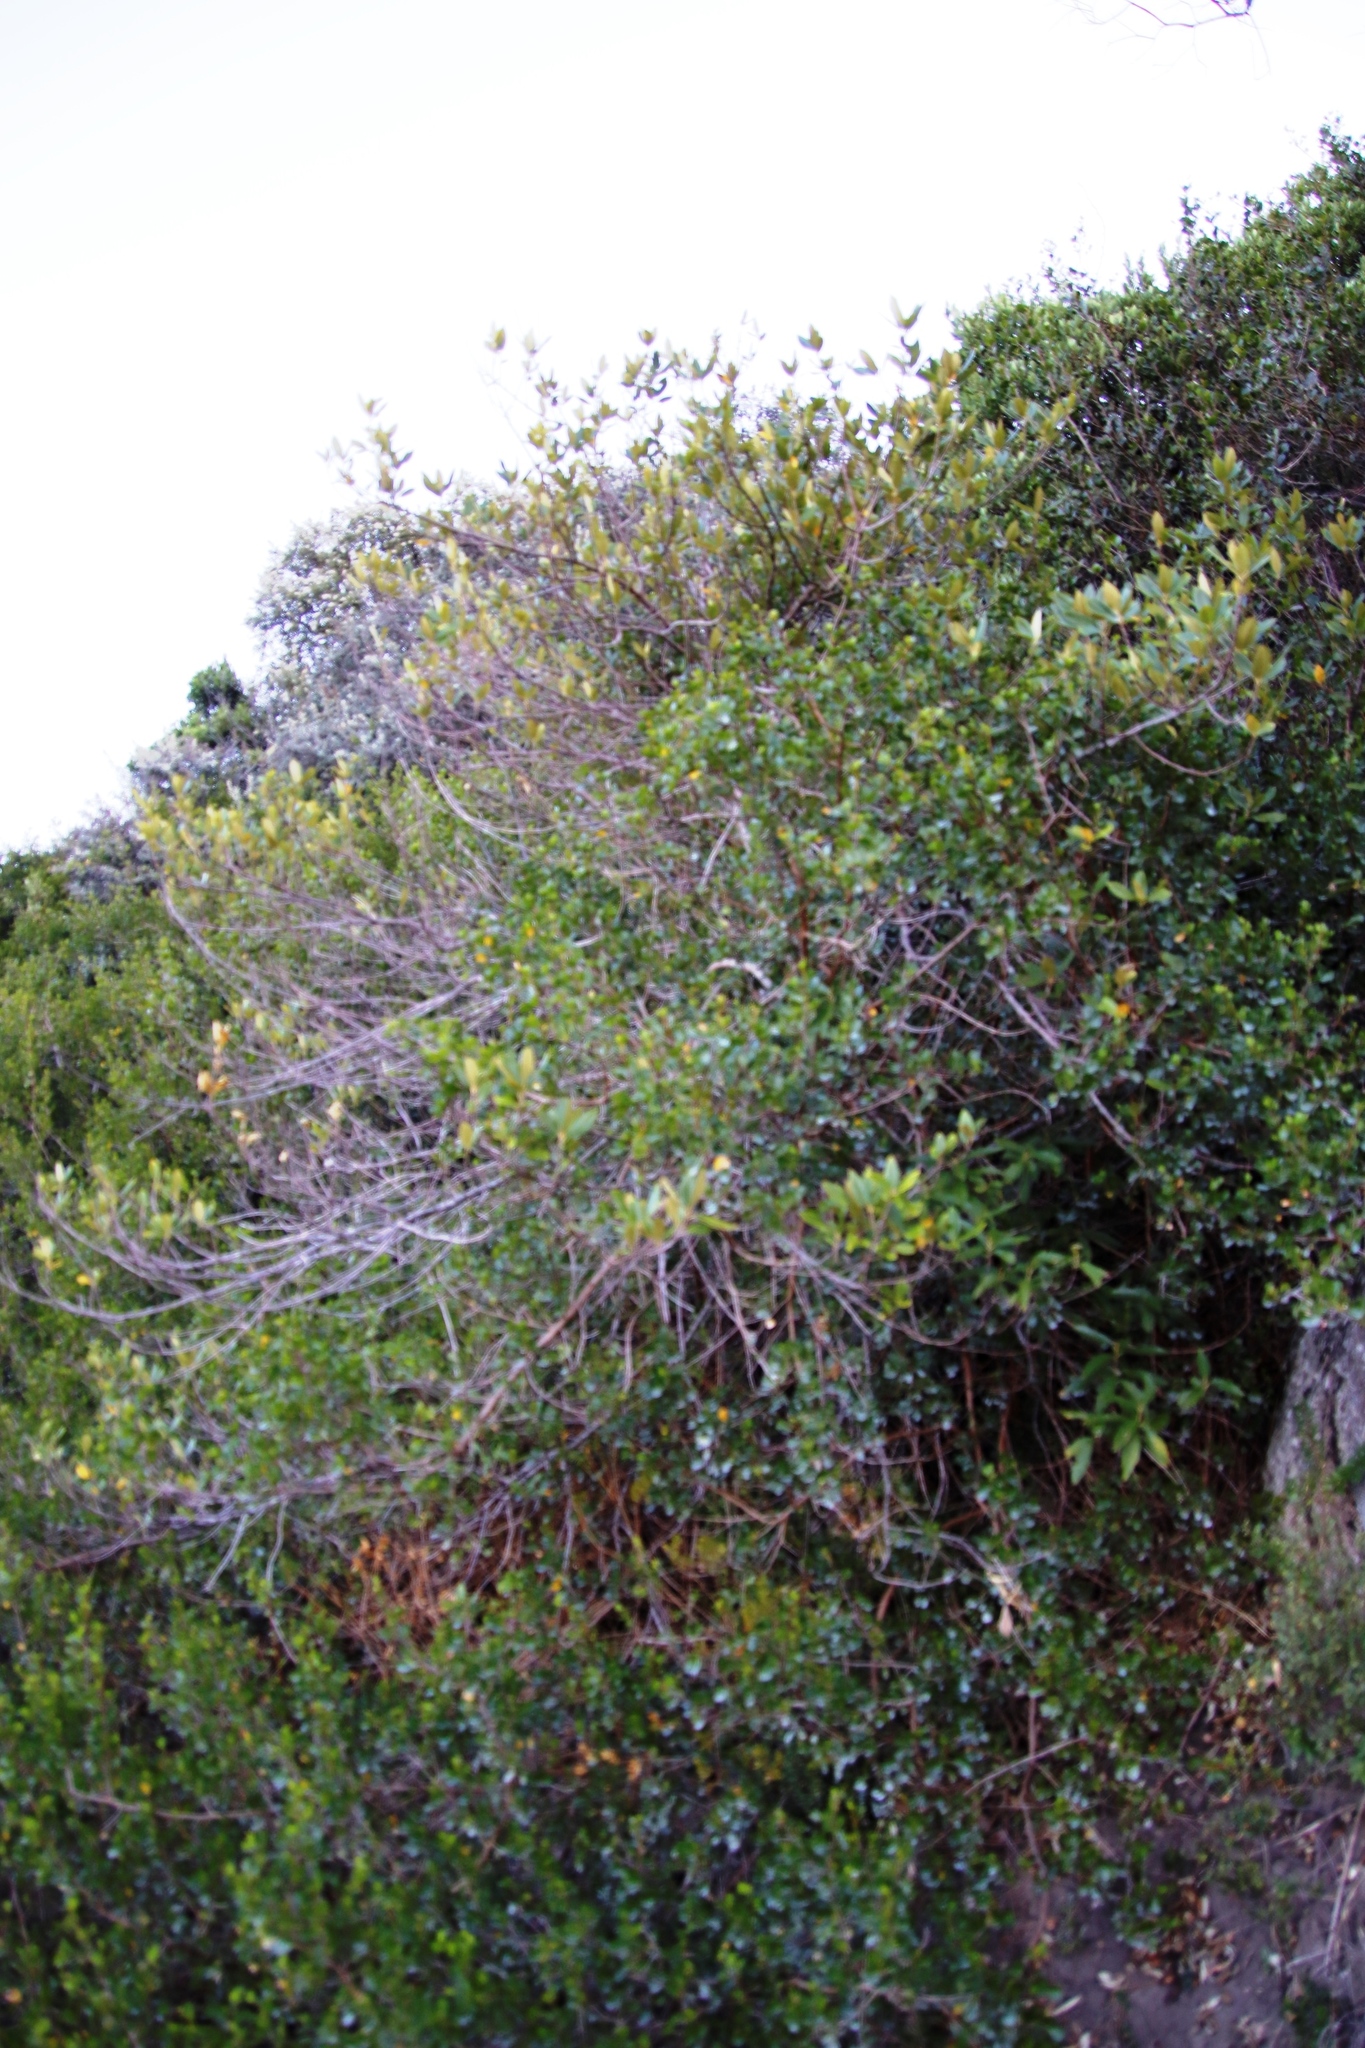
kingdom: Plantae
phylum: Tracheophyta
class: Magnoliopsida
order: Malpighiales
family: Achariaceae
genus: Kiggelaria
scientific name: Kiggelaria africana
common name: Wild peach
